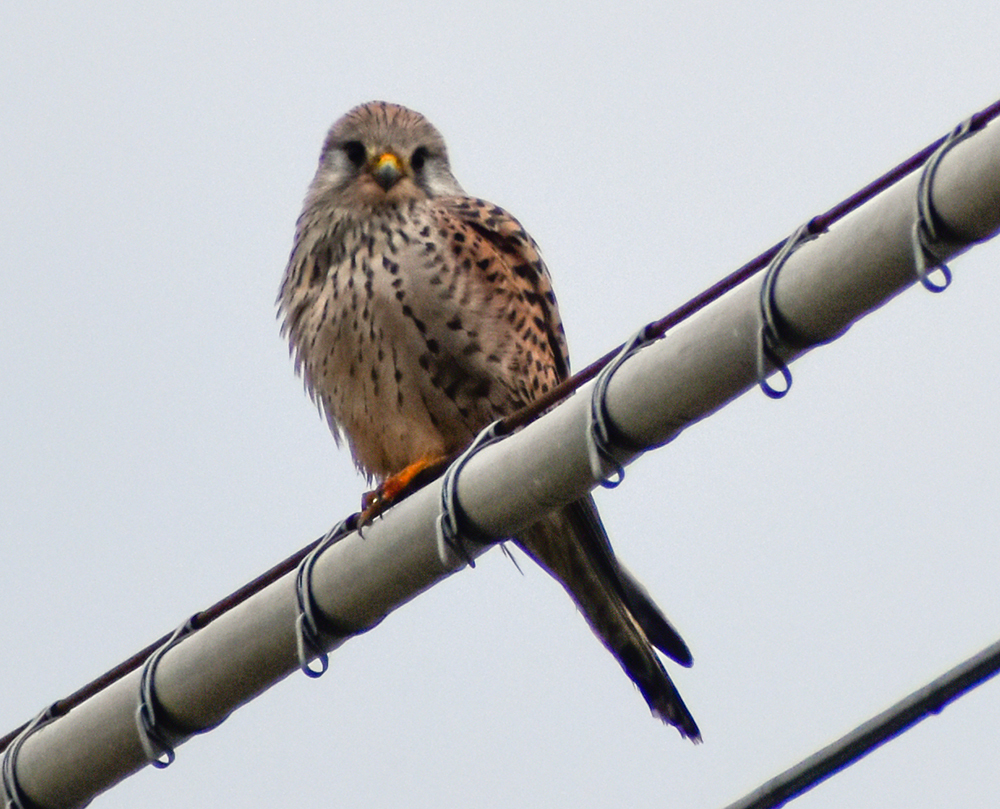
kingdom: Animalia
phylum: Chordata
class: Aves
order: Falconiformes
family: Falconidae
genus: Falco
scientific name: Falco tinnunculus
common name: Common kestrel
